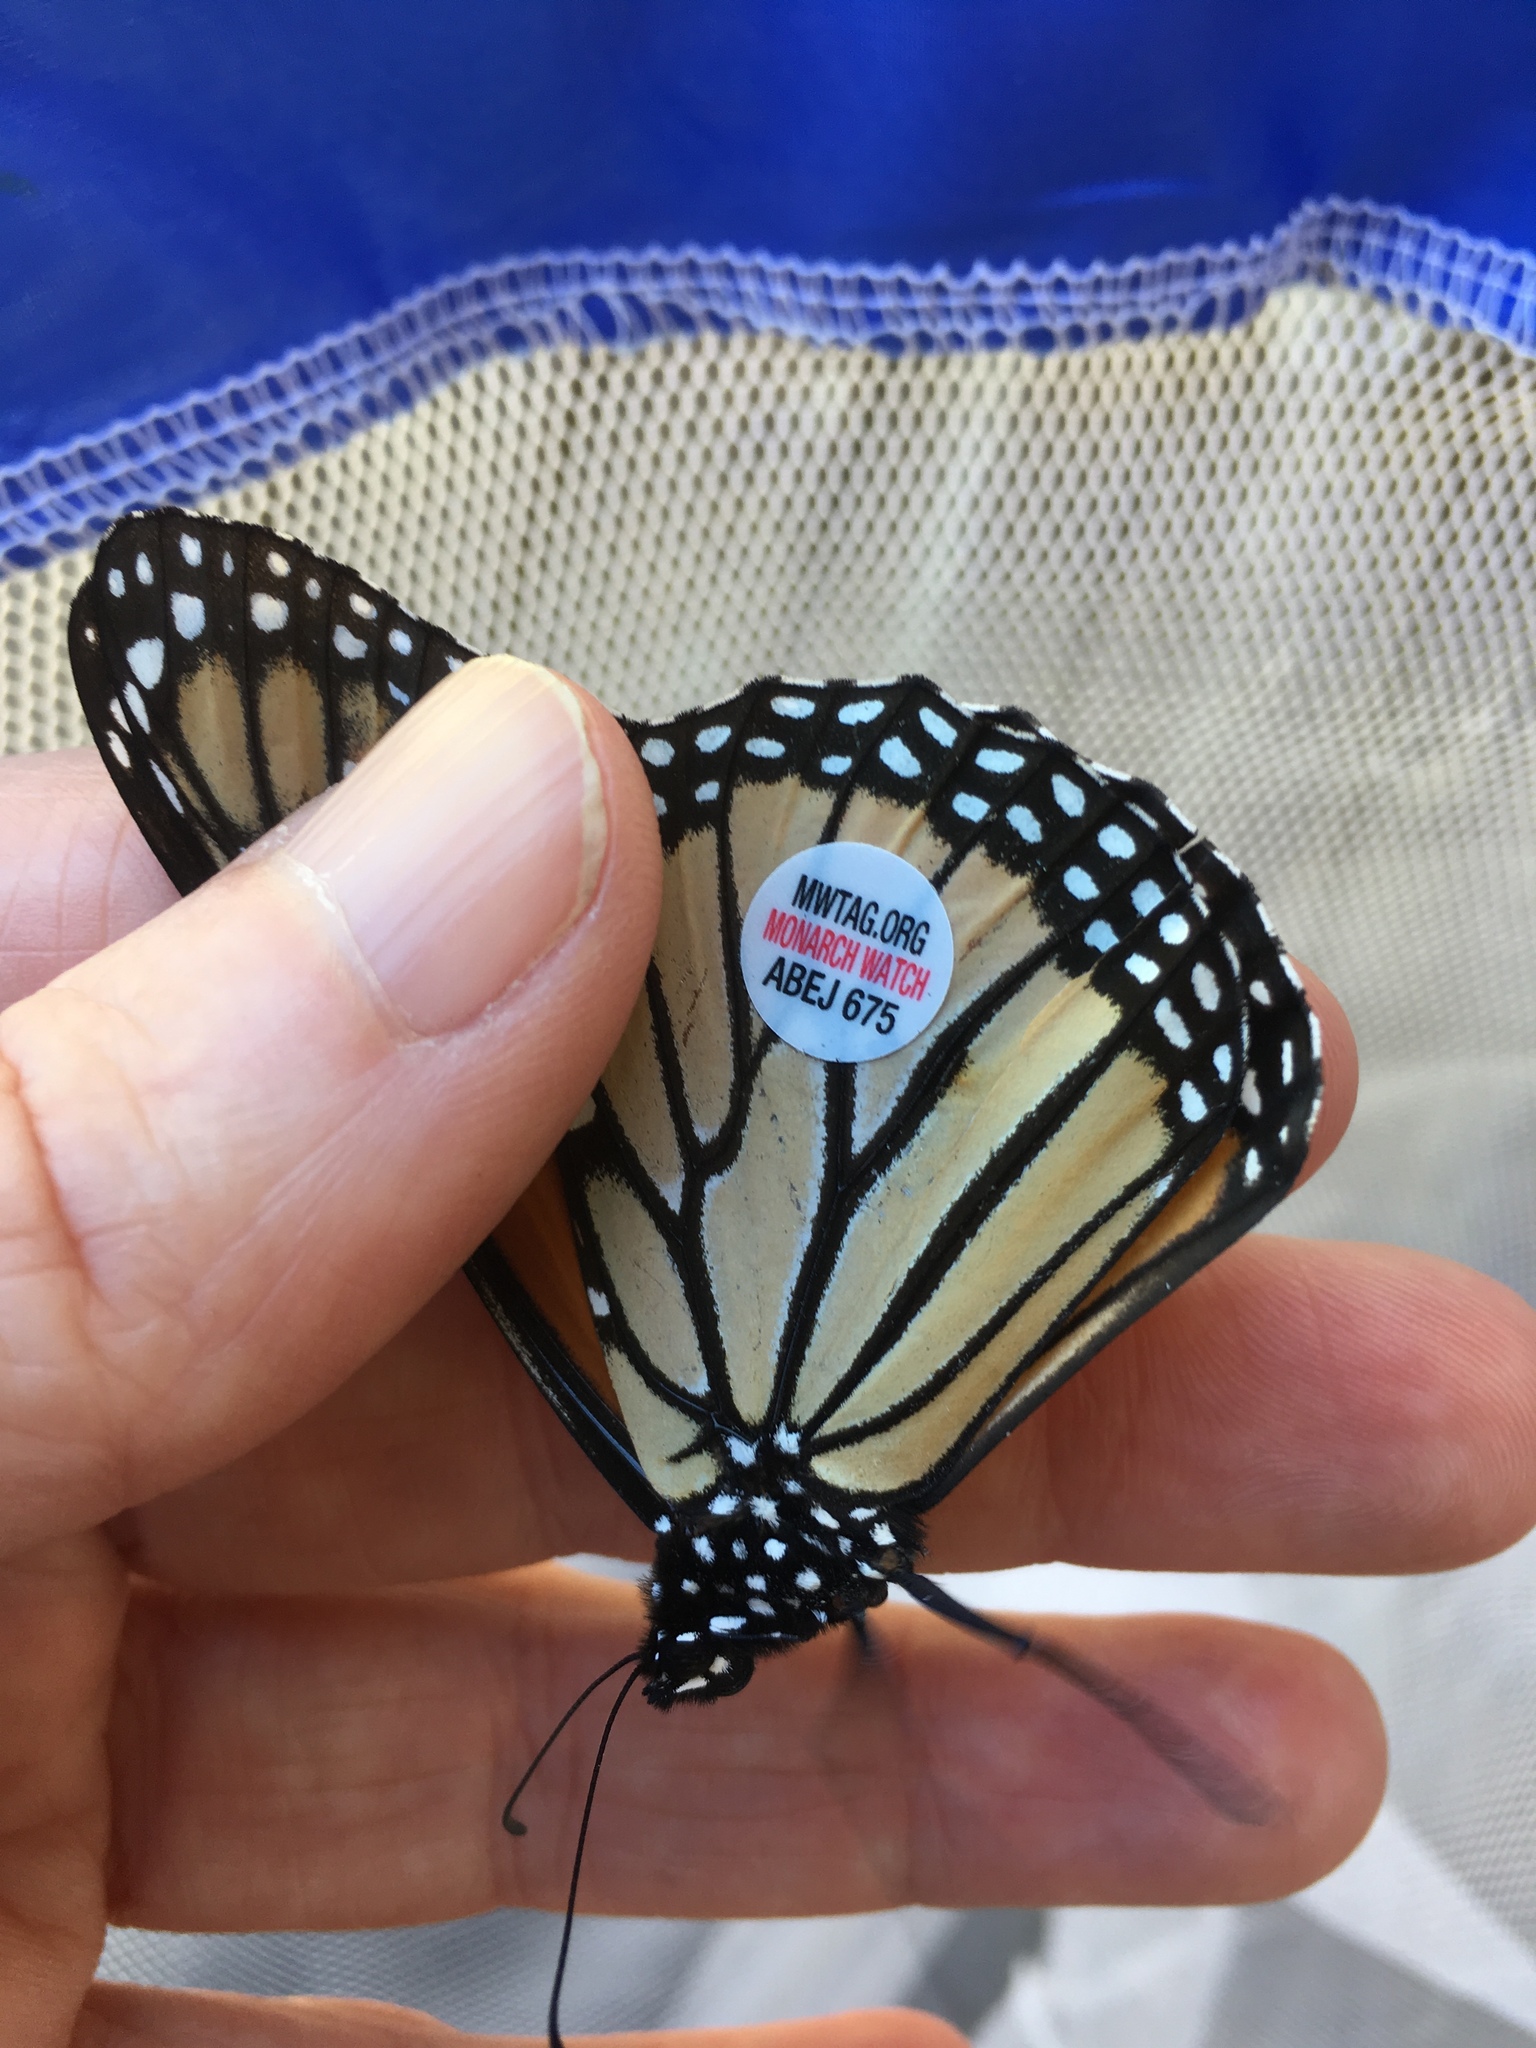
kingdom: Animalia
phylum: Arthropoda
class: Insecta
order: Lepidoptera
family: Nymphalidae
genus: Danaus
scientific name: Danaus plexippus
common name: Monarch
